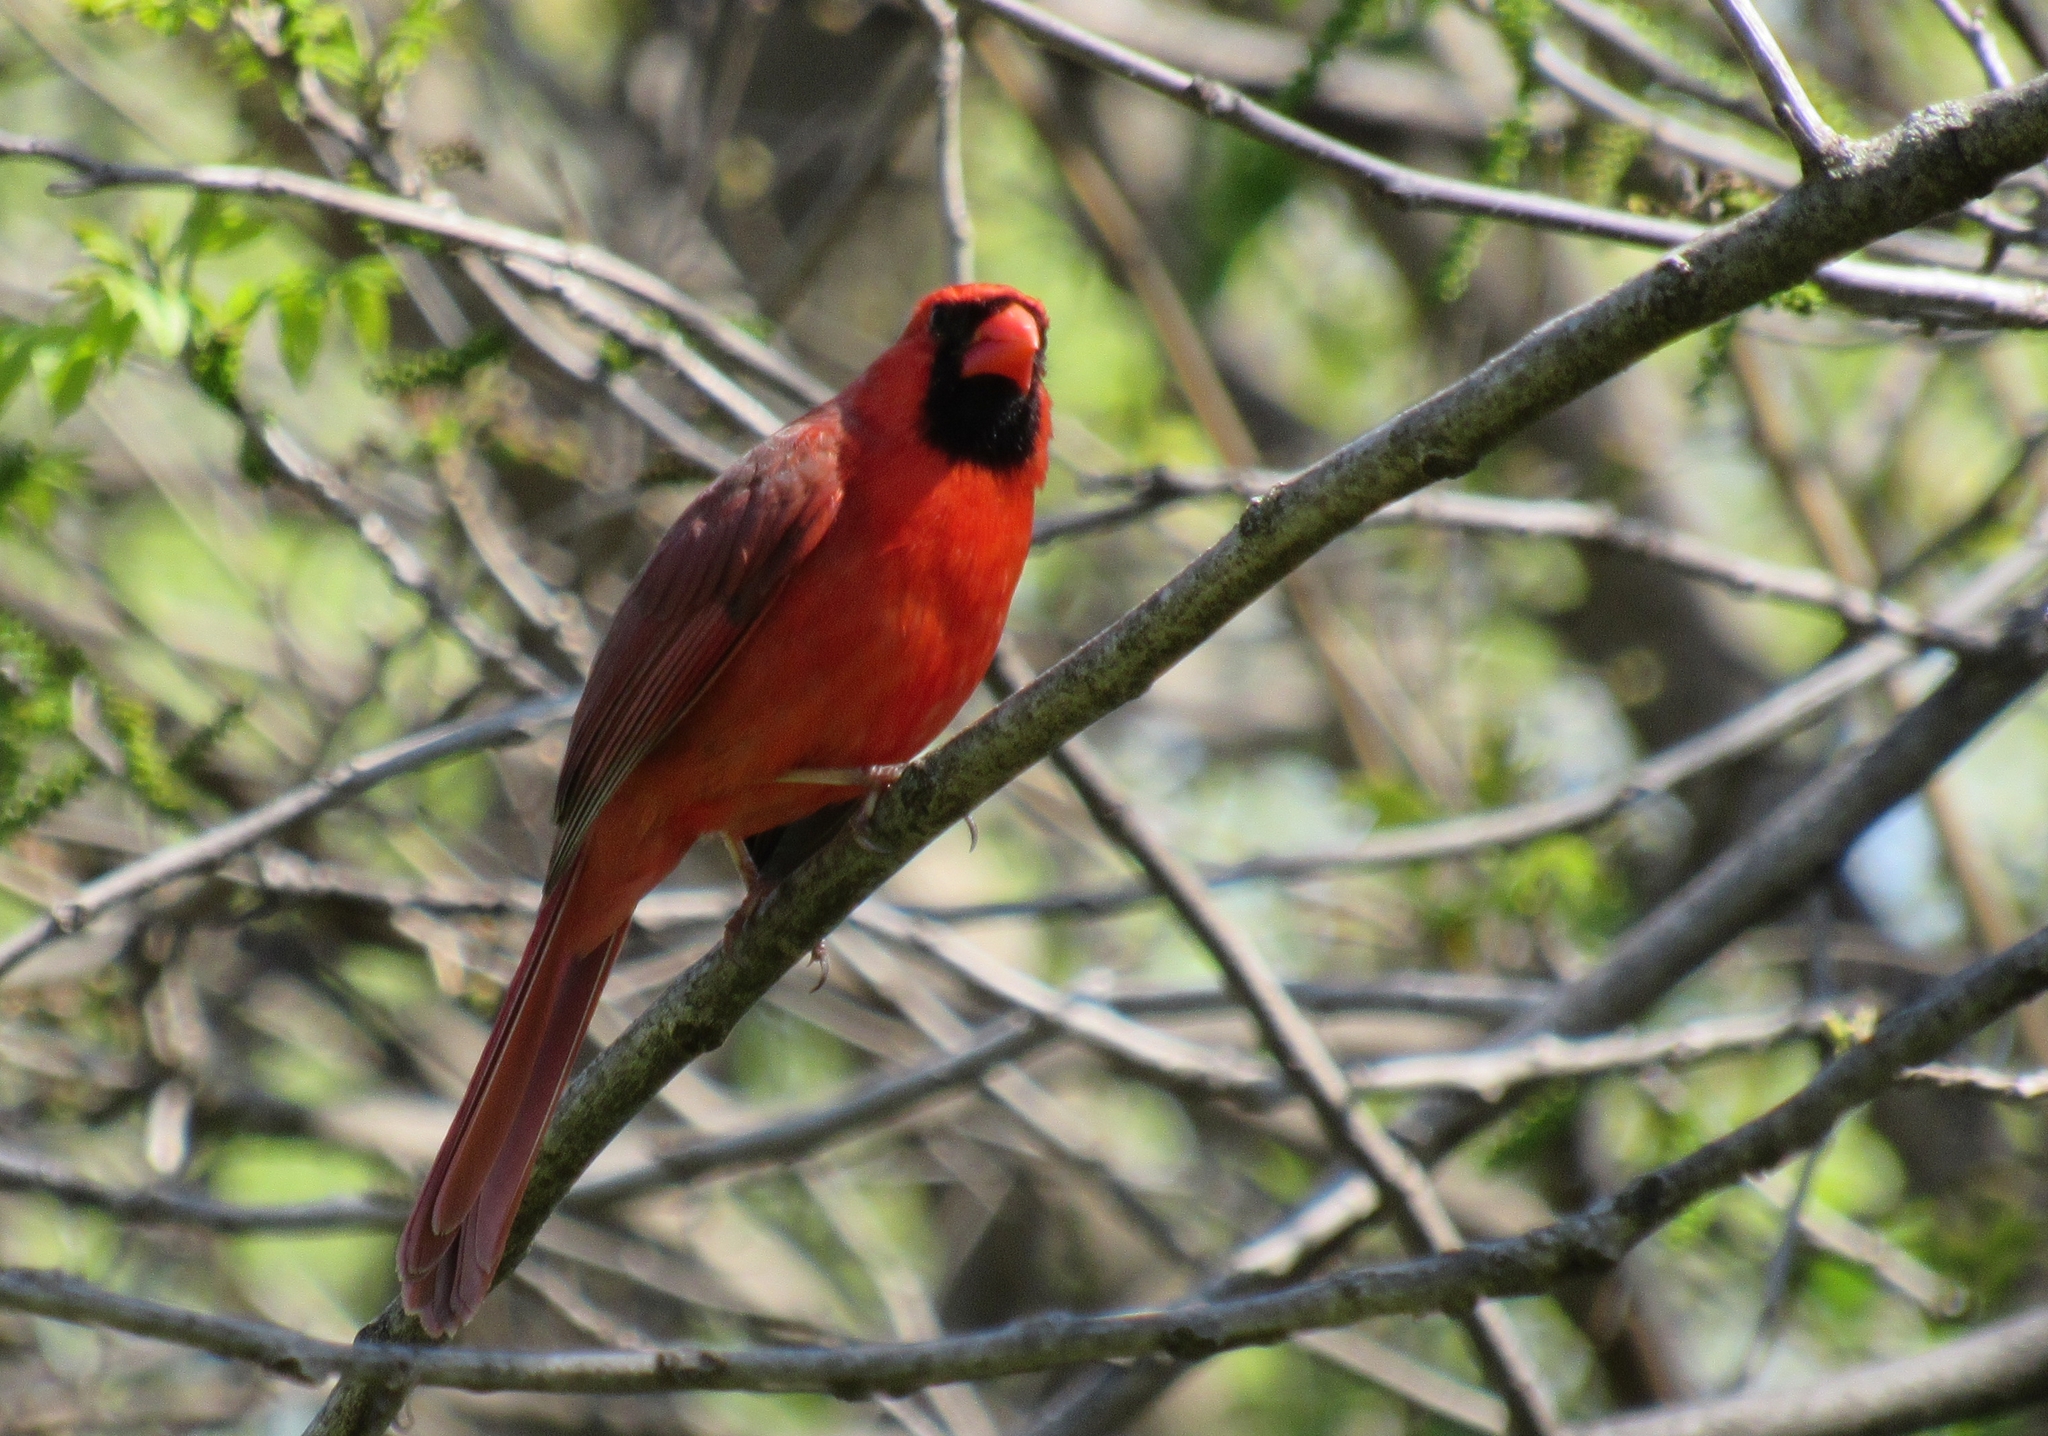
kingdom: Animalia
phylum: Chordata
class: Aves
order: Passeriformes
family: Cardinalidae
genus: Cardinalis
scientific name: Cardinalis cardinalis
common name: Northern cardinal
